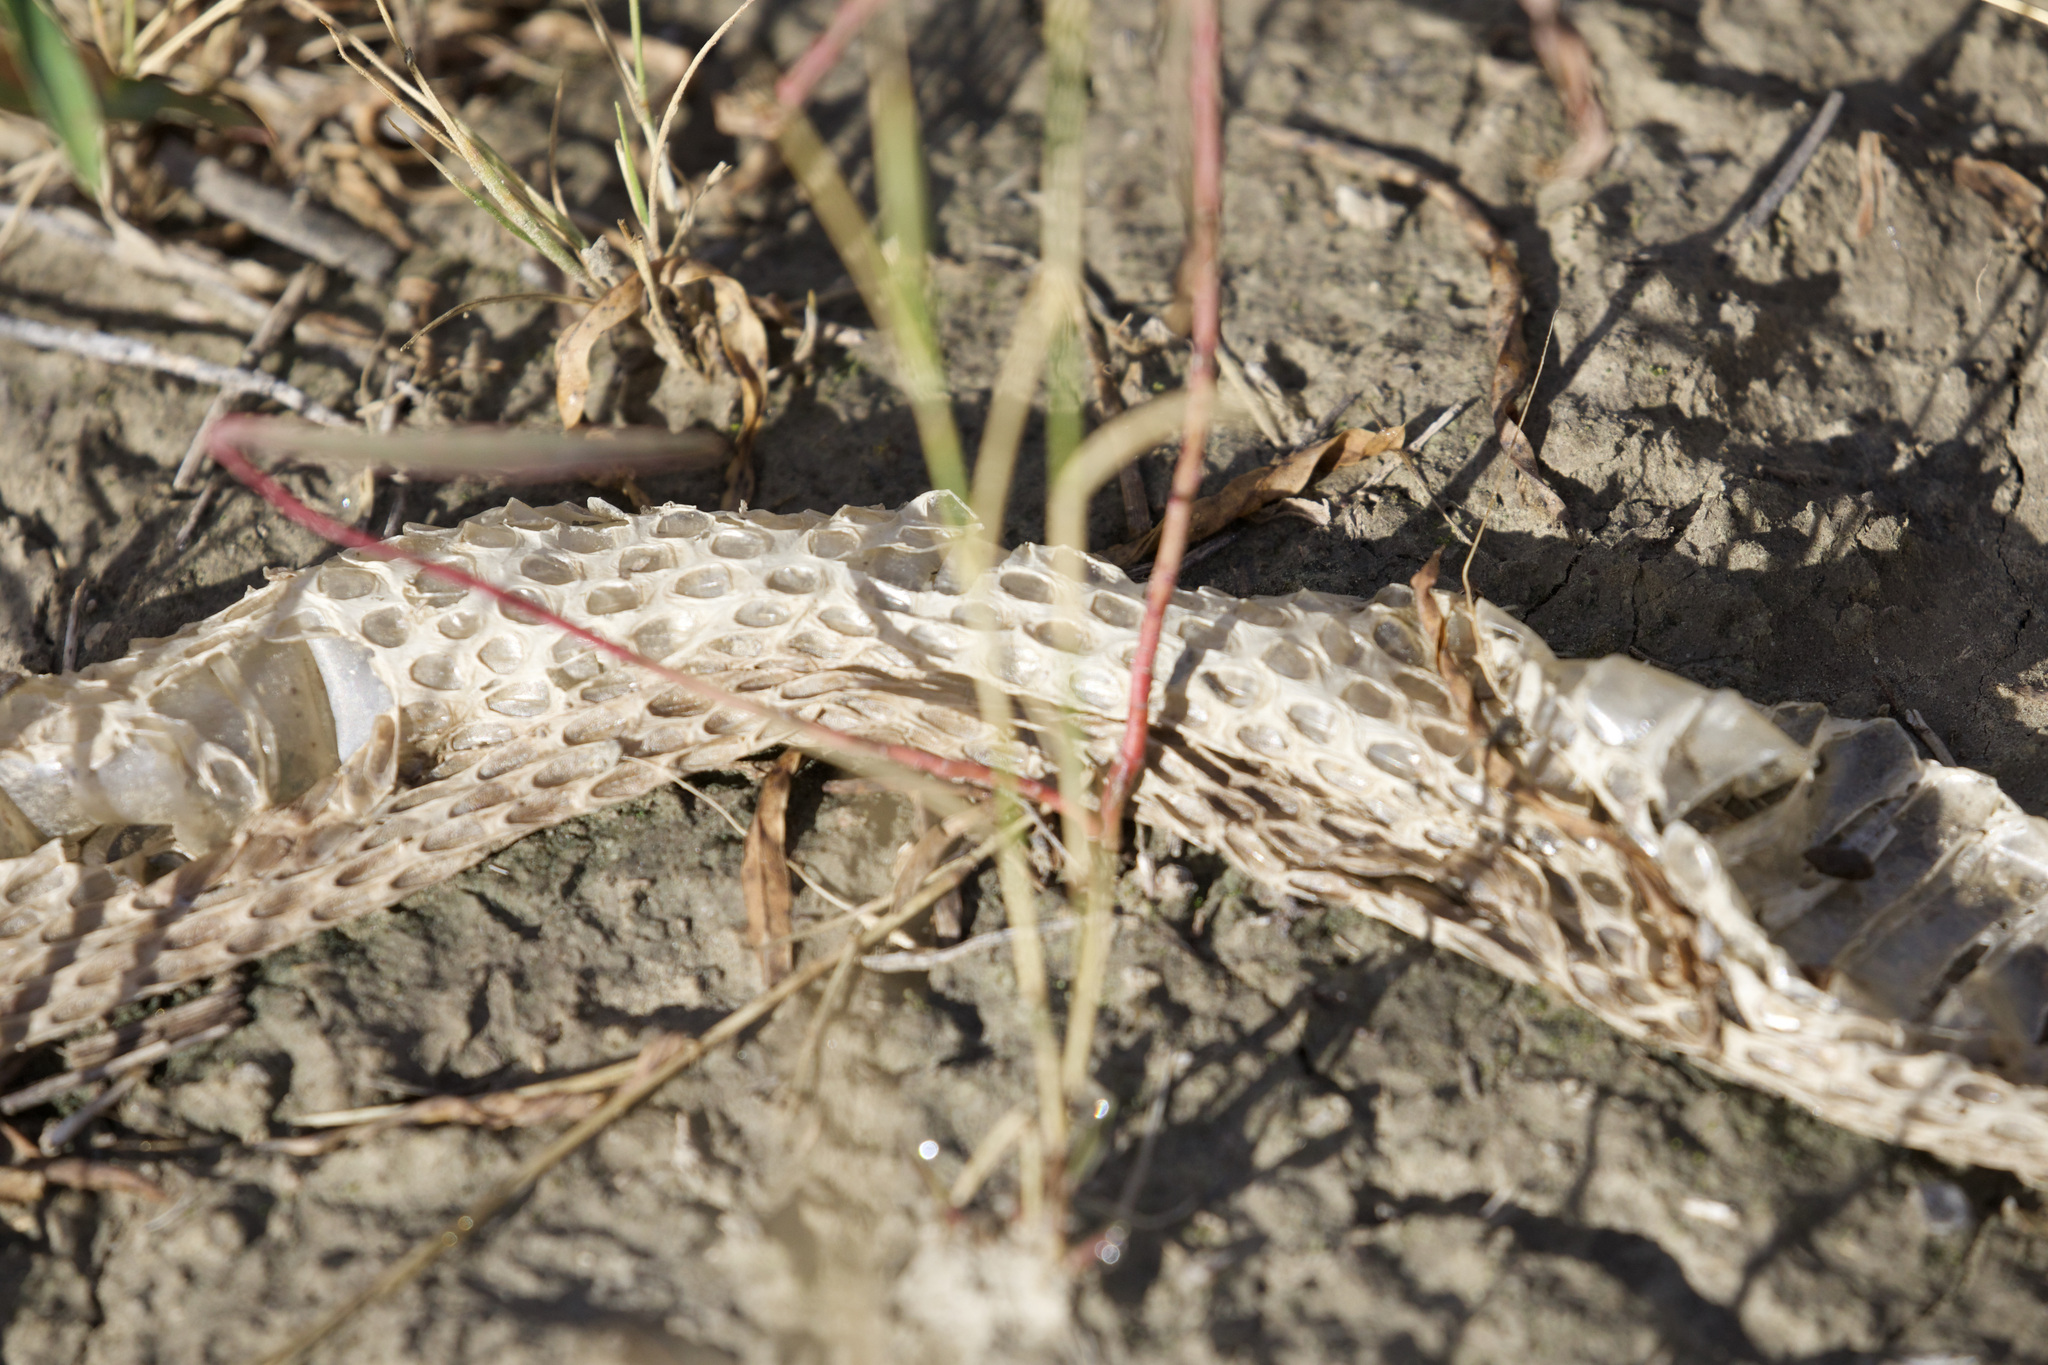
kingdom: Animalia
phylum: Chordata
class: Squamata
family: Viperidae
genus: Crotalus
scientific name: Crotalus viridis
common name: Prairie rattlesnake
